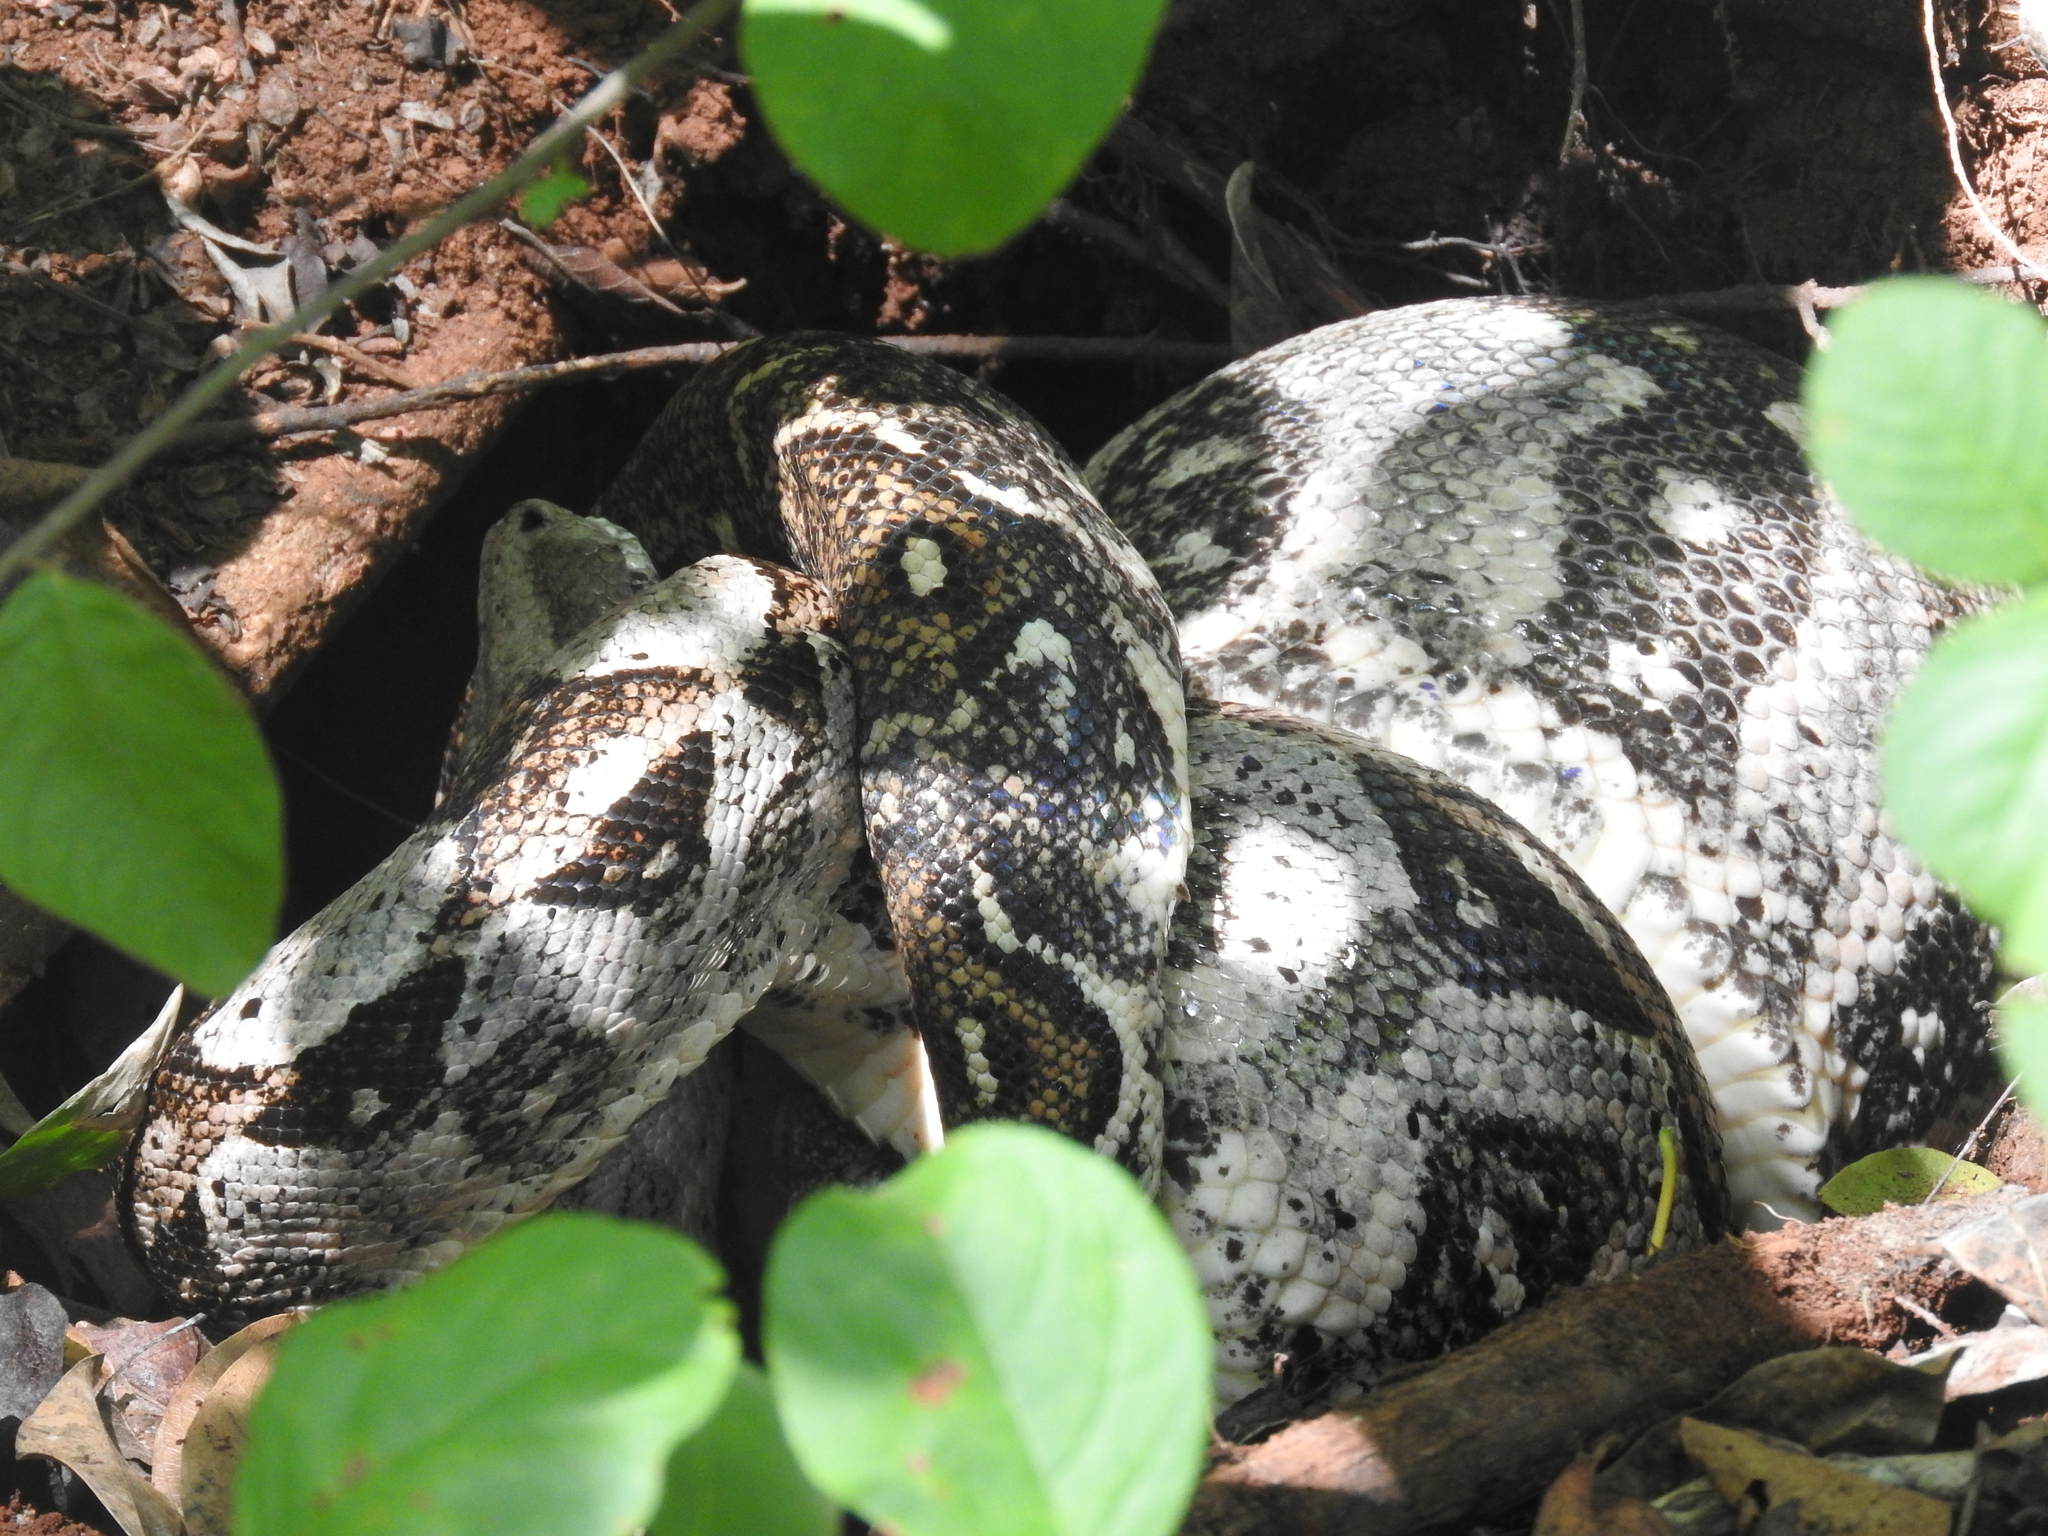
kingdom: Animalia
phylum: Chordata
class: Squamata
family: Boidae
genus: Boa
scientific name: Boa imperator
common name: Central american boa
